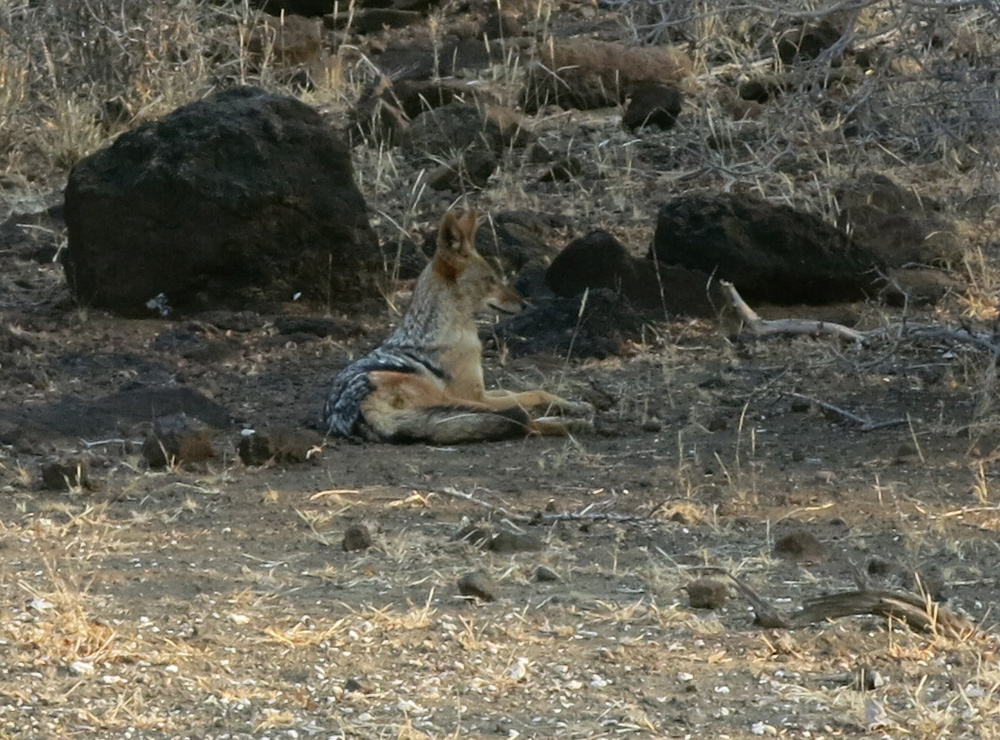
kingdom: Animalia
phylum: Chordata
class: Mammalia
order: Carnivora
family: Canidae
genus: Lupulella
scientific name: Lupulella
